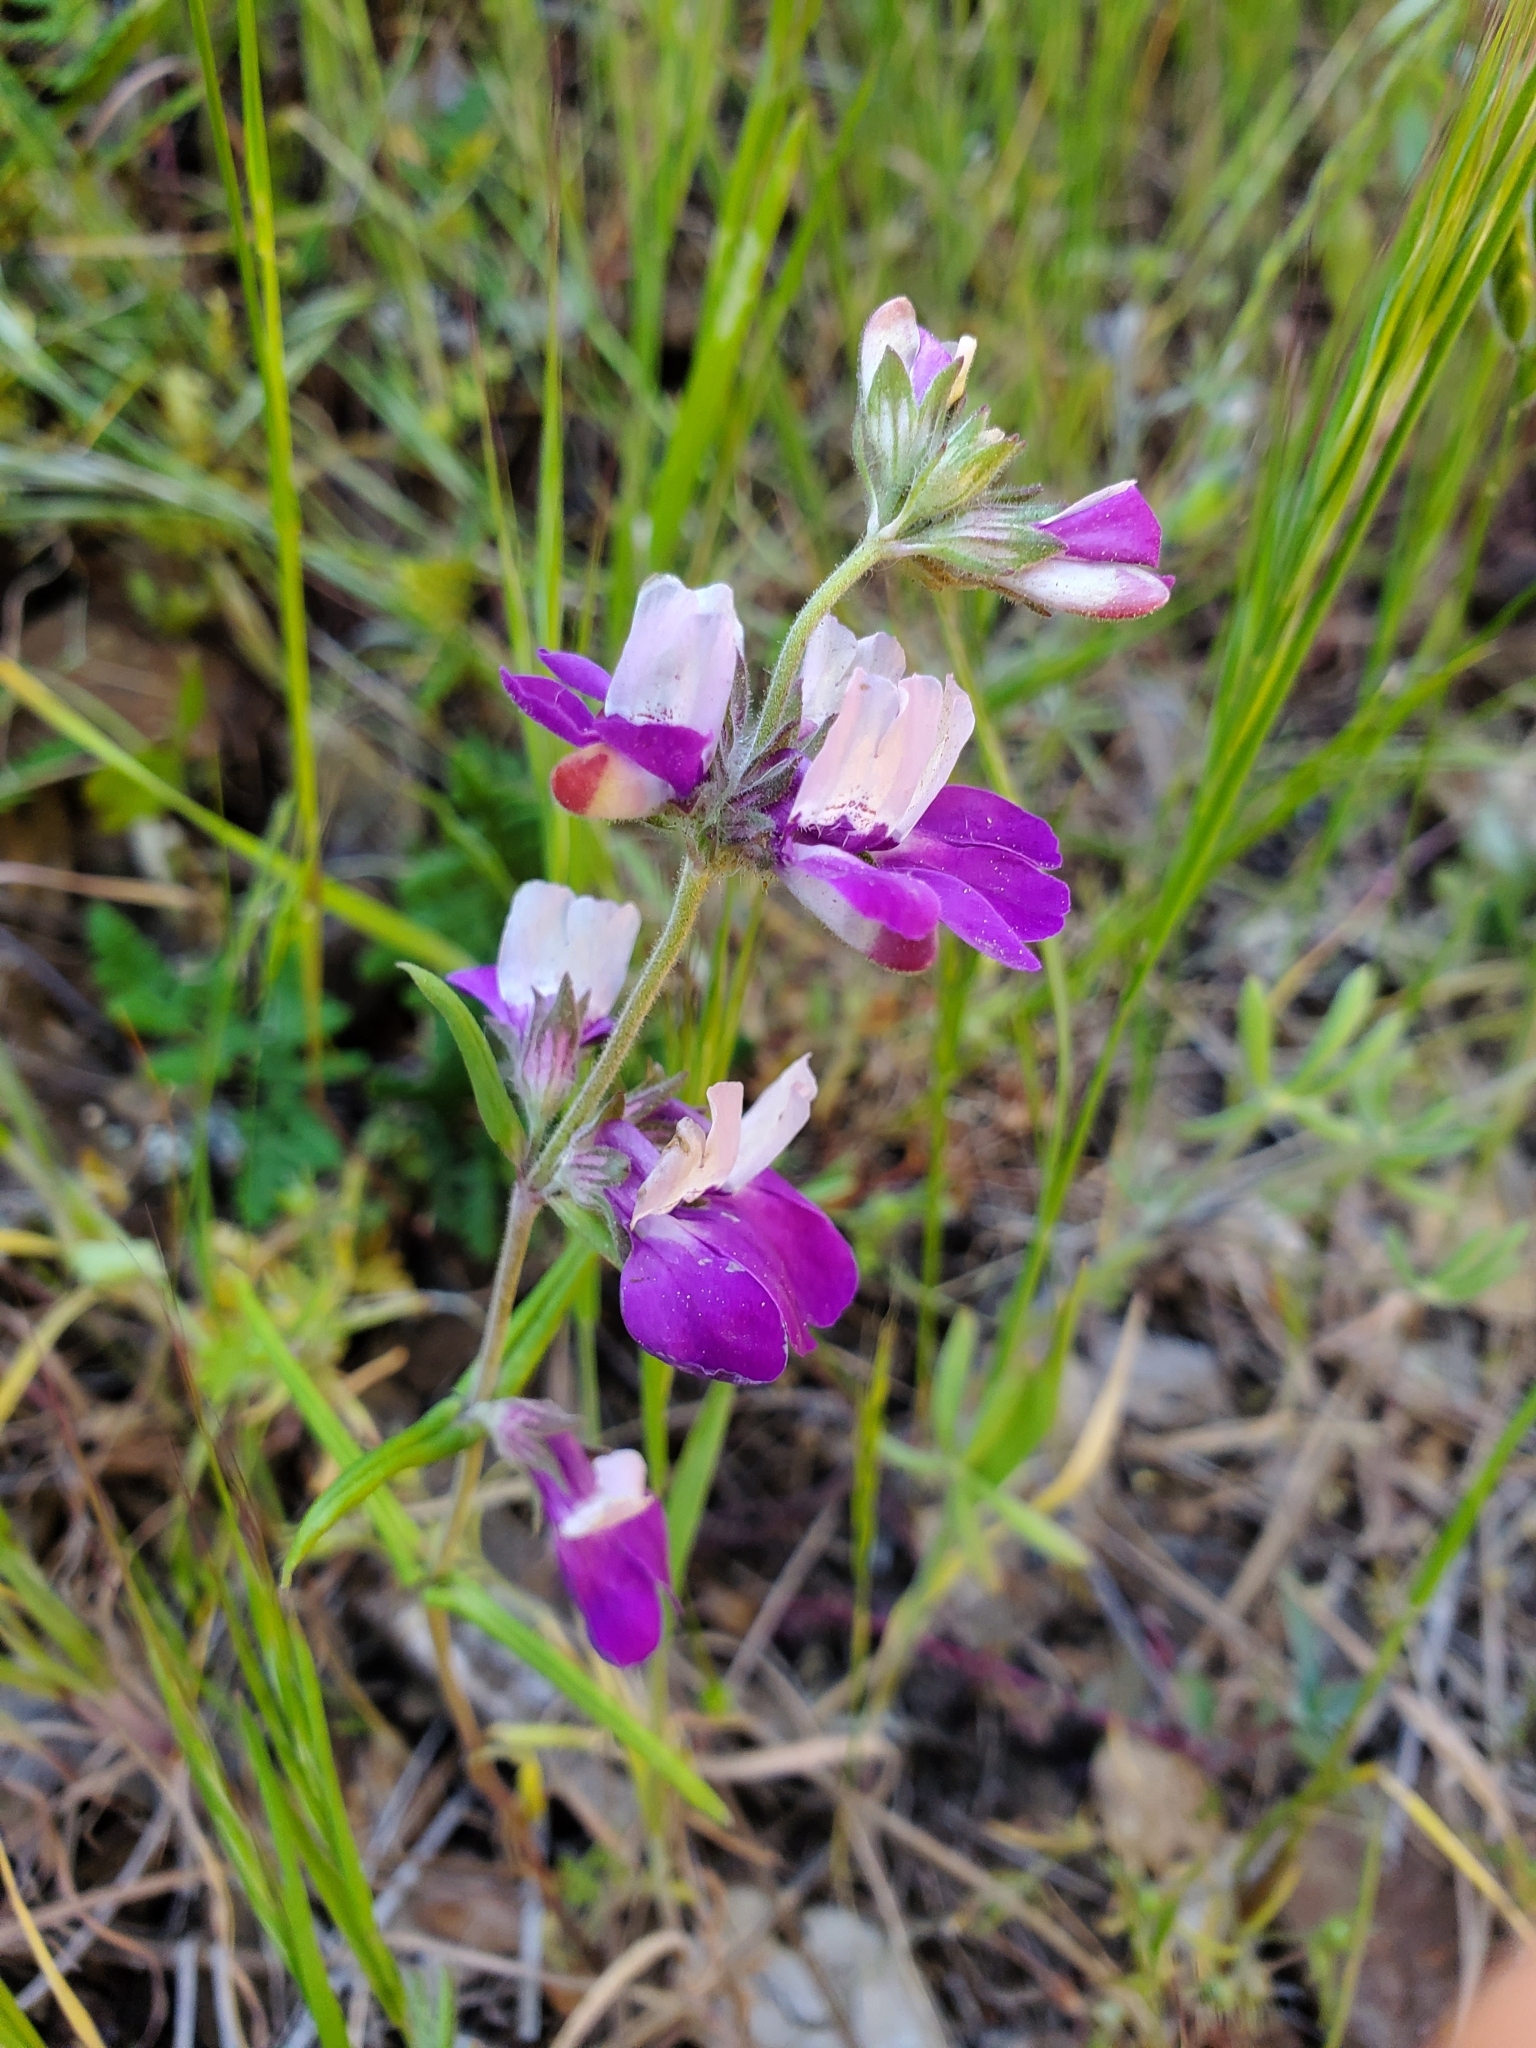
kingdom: Plantae
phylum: Tracheophyta
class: Magnoliopsida
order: Lamiales
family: Plantaginaceae
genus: Collinsia
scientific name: Collinsia heterophylla
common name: Chinese-houses
